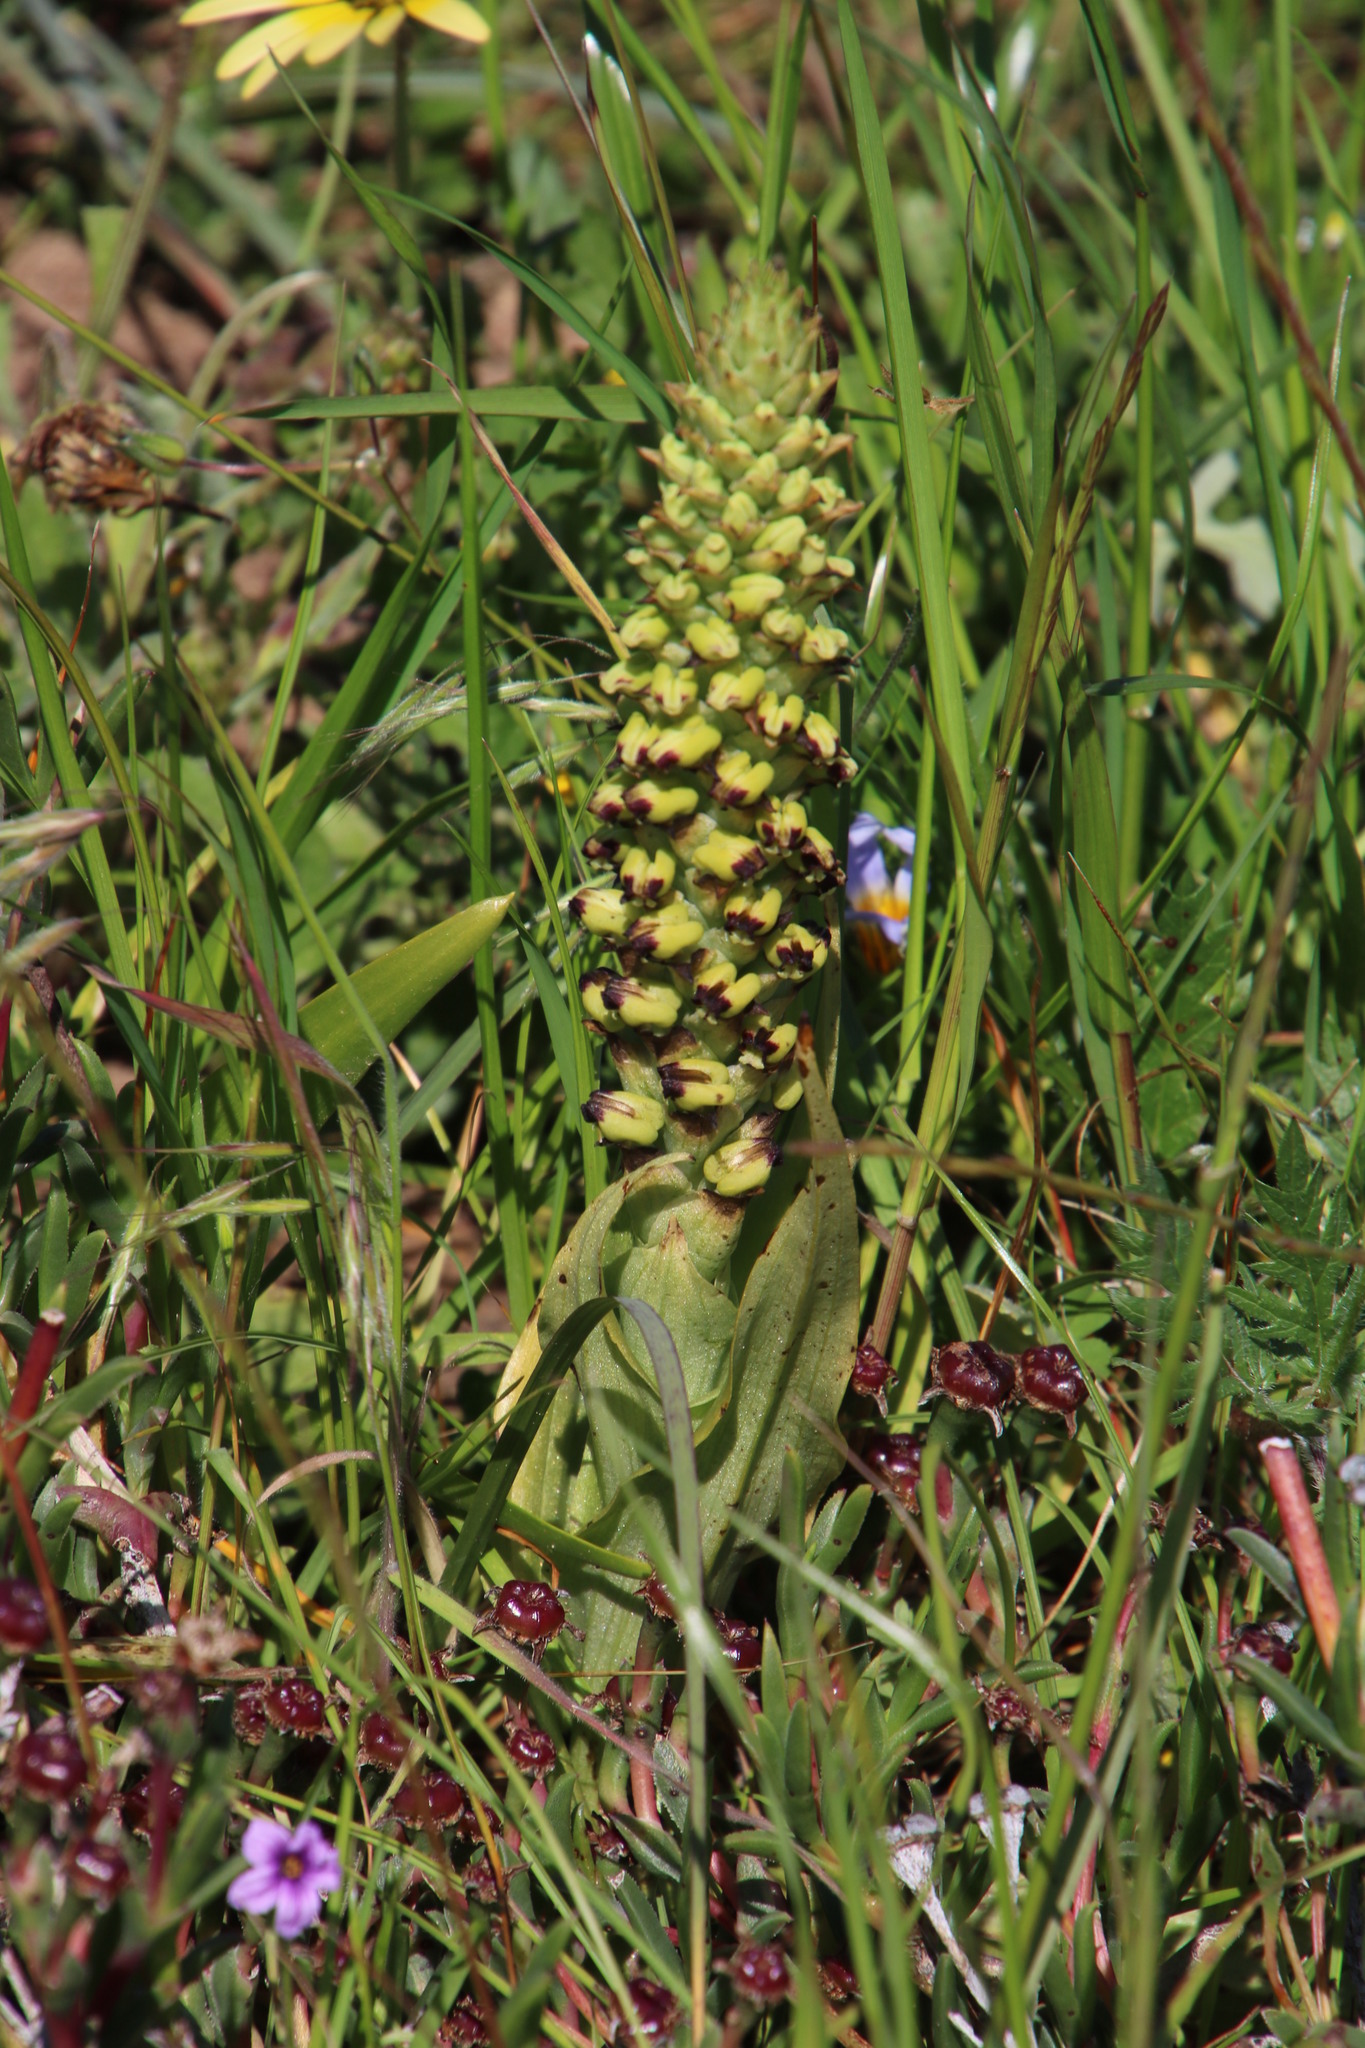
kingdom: Plantae
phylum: Tracheophyta
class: Liliopsida
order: Asparagales
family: Orchidaceae
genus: Corycium
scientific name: Corycium orobanchoides
